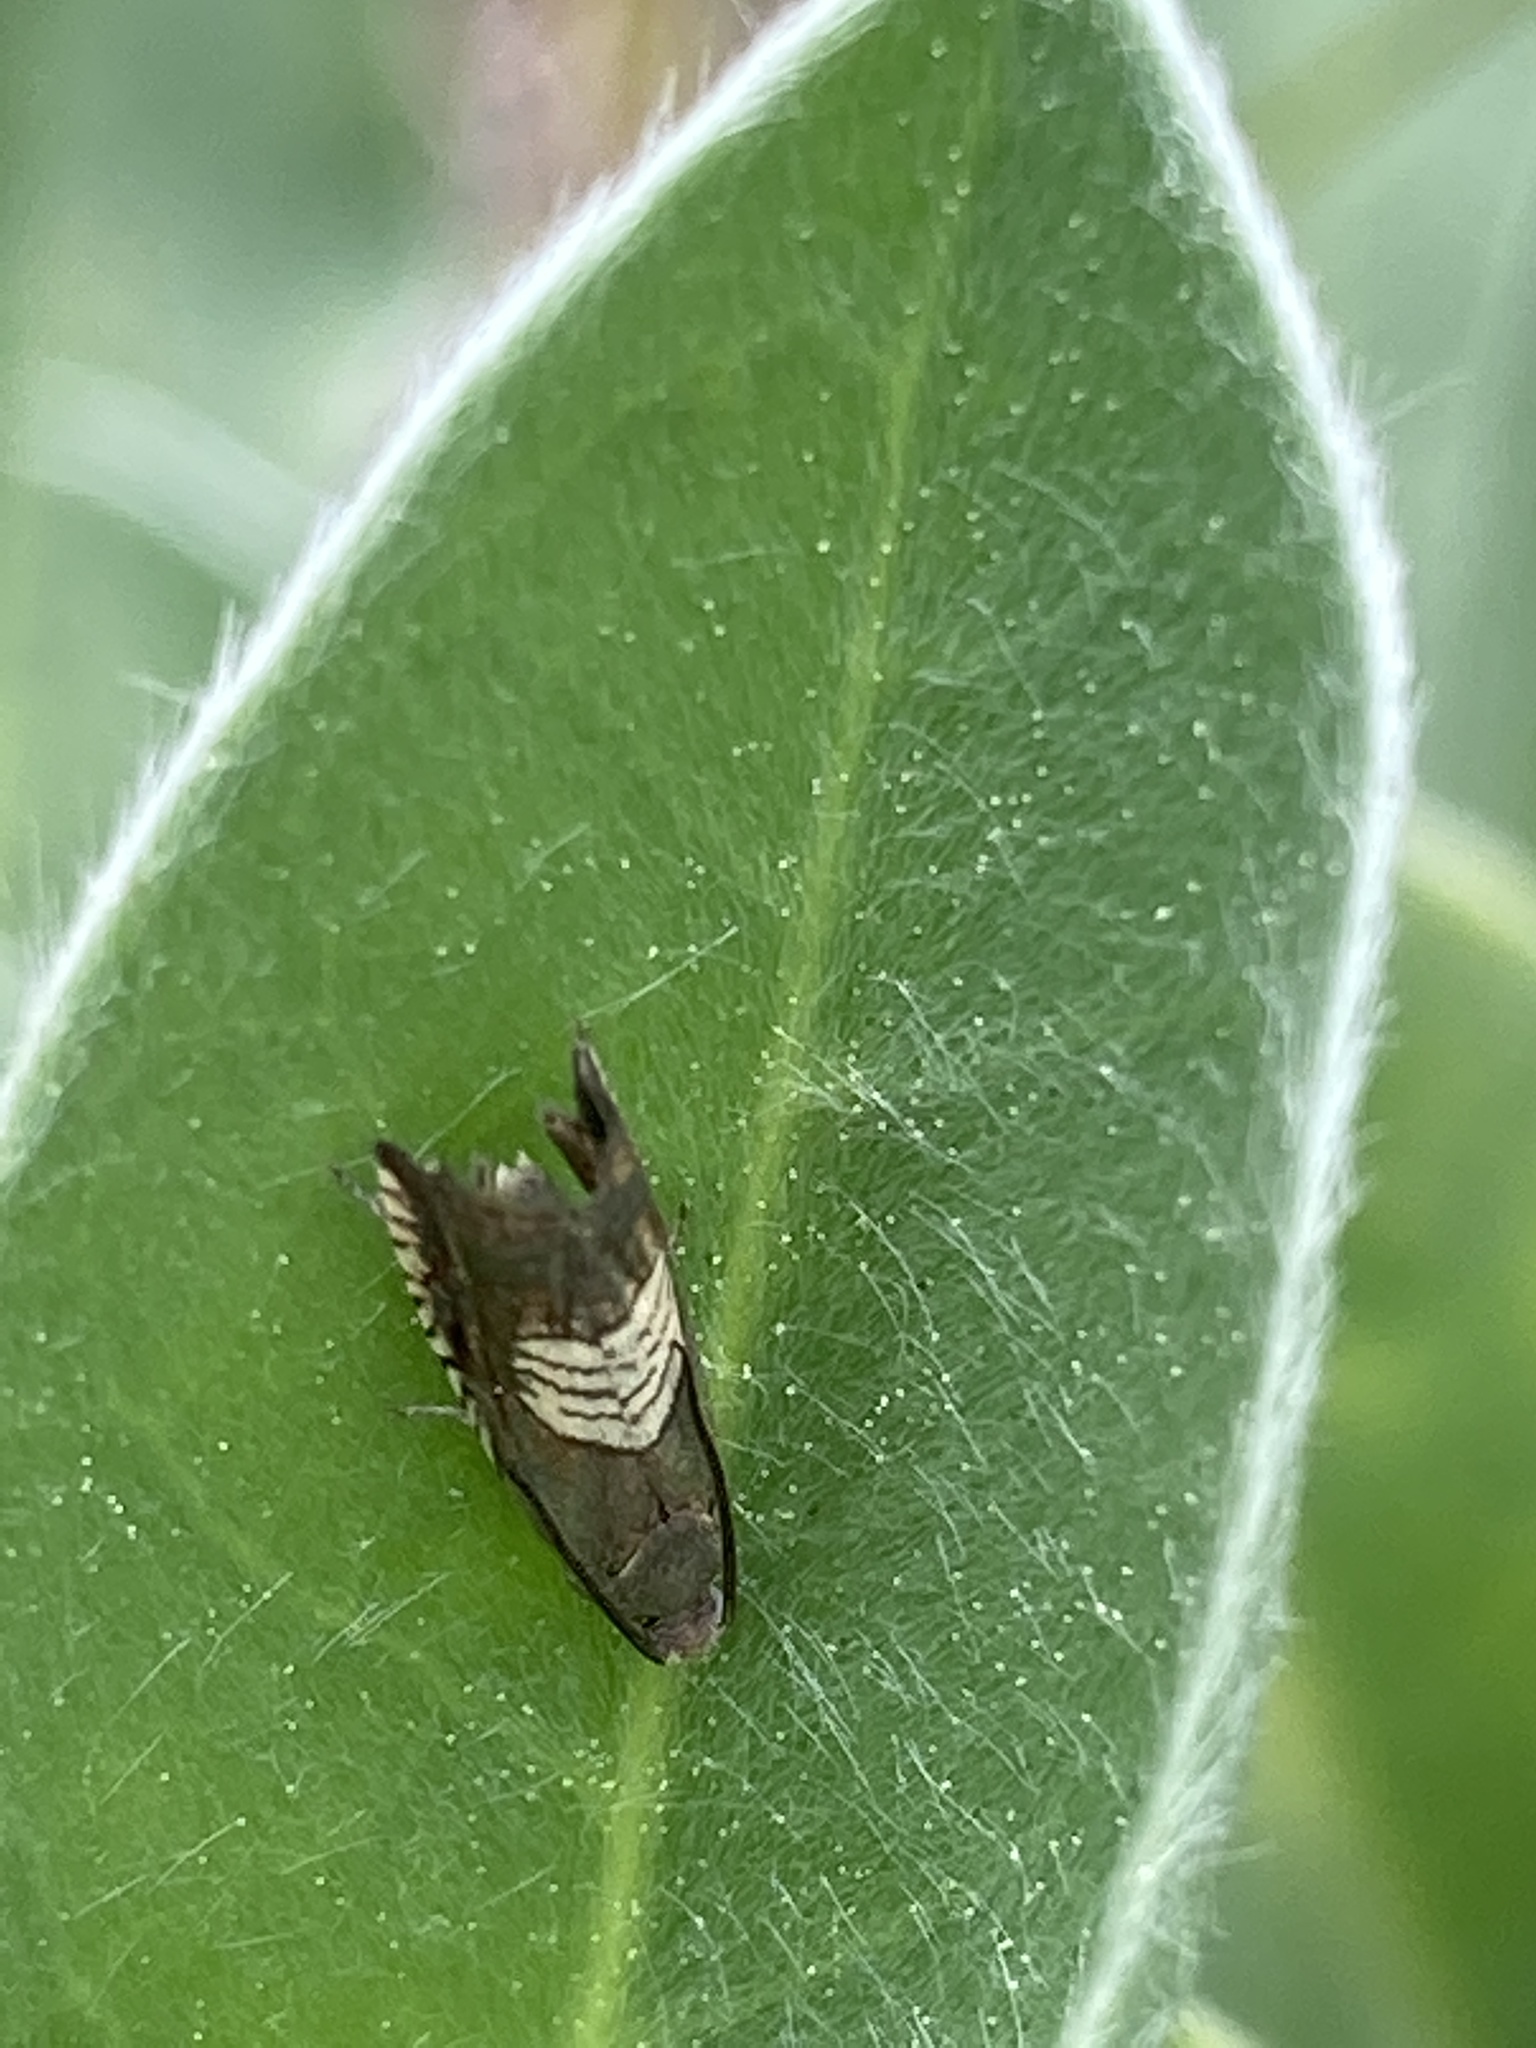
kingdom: Animalia
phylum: Arthropoda
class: Insecta
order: Lepidoptera
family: Tortricidae
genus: Grapholita
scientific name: Grapholita tristrigana
